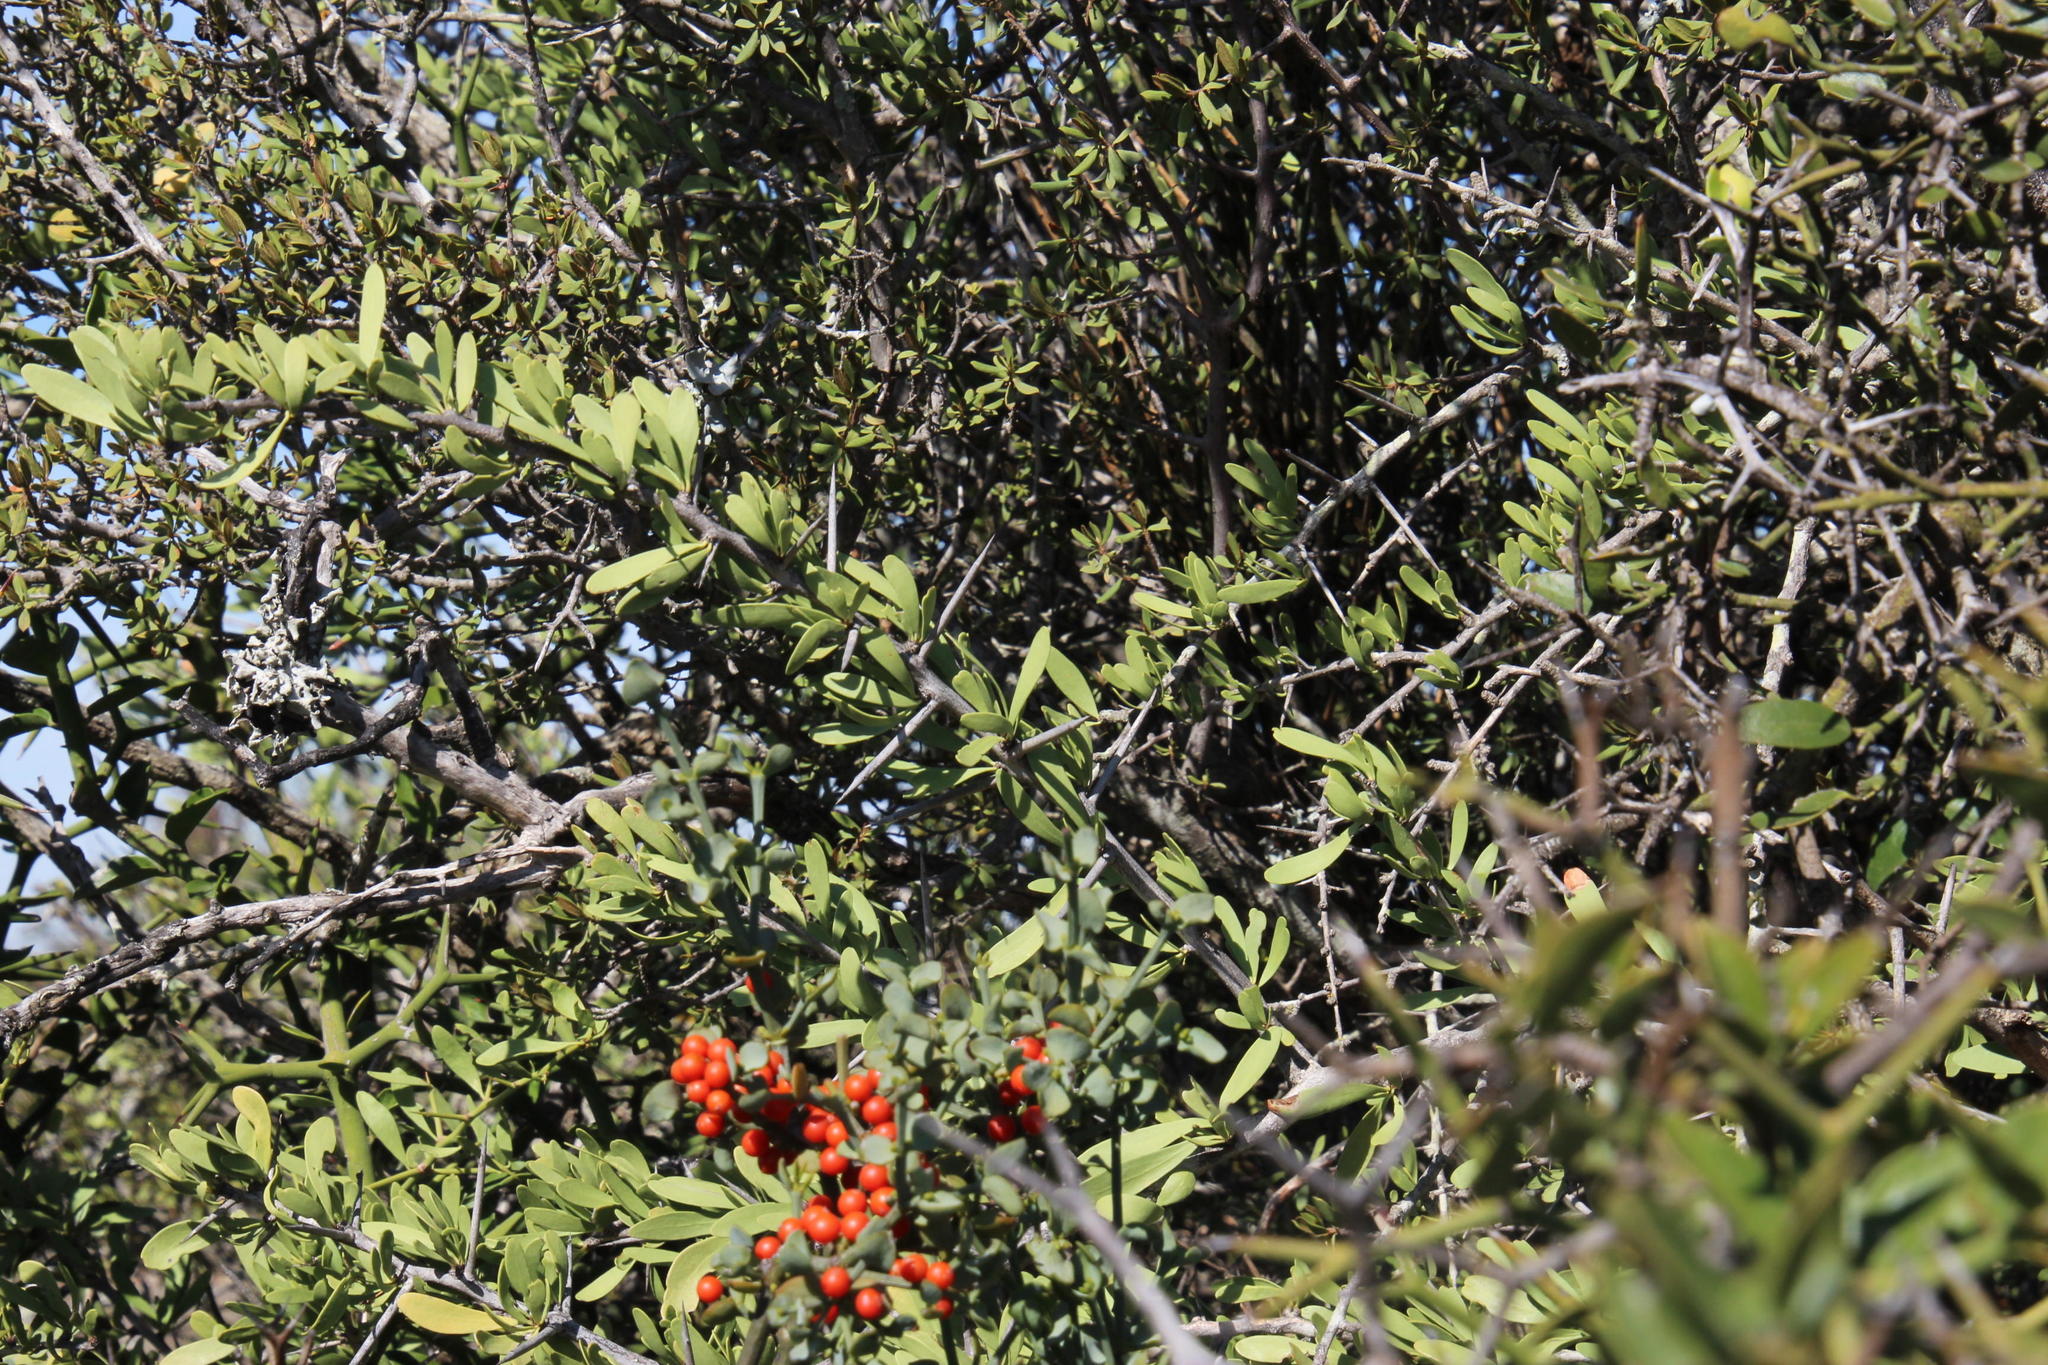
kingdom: Plantae
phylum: Tracheophyta
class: Magnoliopsida
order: Celastrales
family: Celastraceae
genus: Gymnosporia
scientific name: Gymnosporia buxifolia
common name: Common spike-thorn
